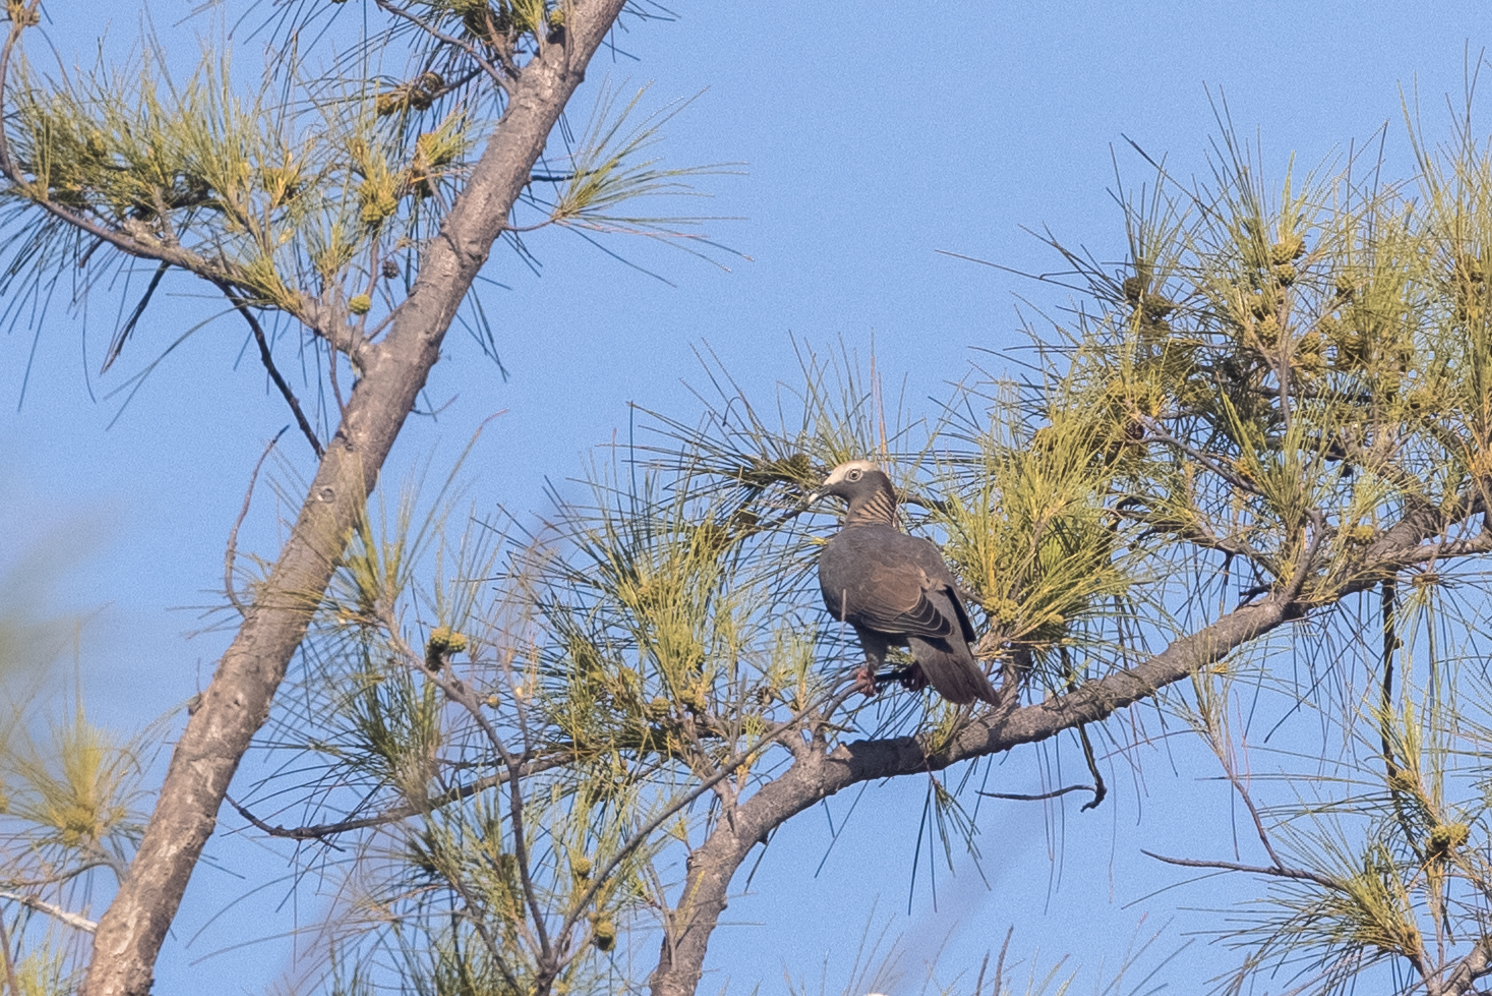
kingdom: Animalia
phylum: Chordata
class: Aves
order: Columbiformes
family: Columbidae
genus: Patagioenas
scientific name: Patagioenas leucocephala
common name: White-crowned pigeon
